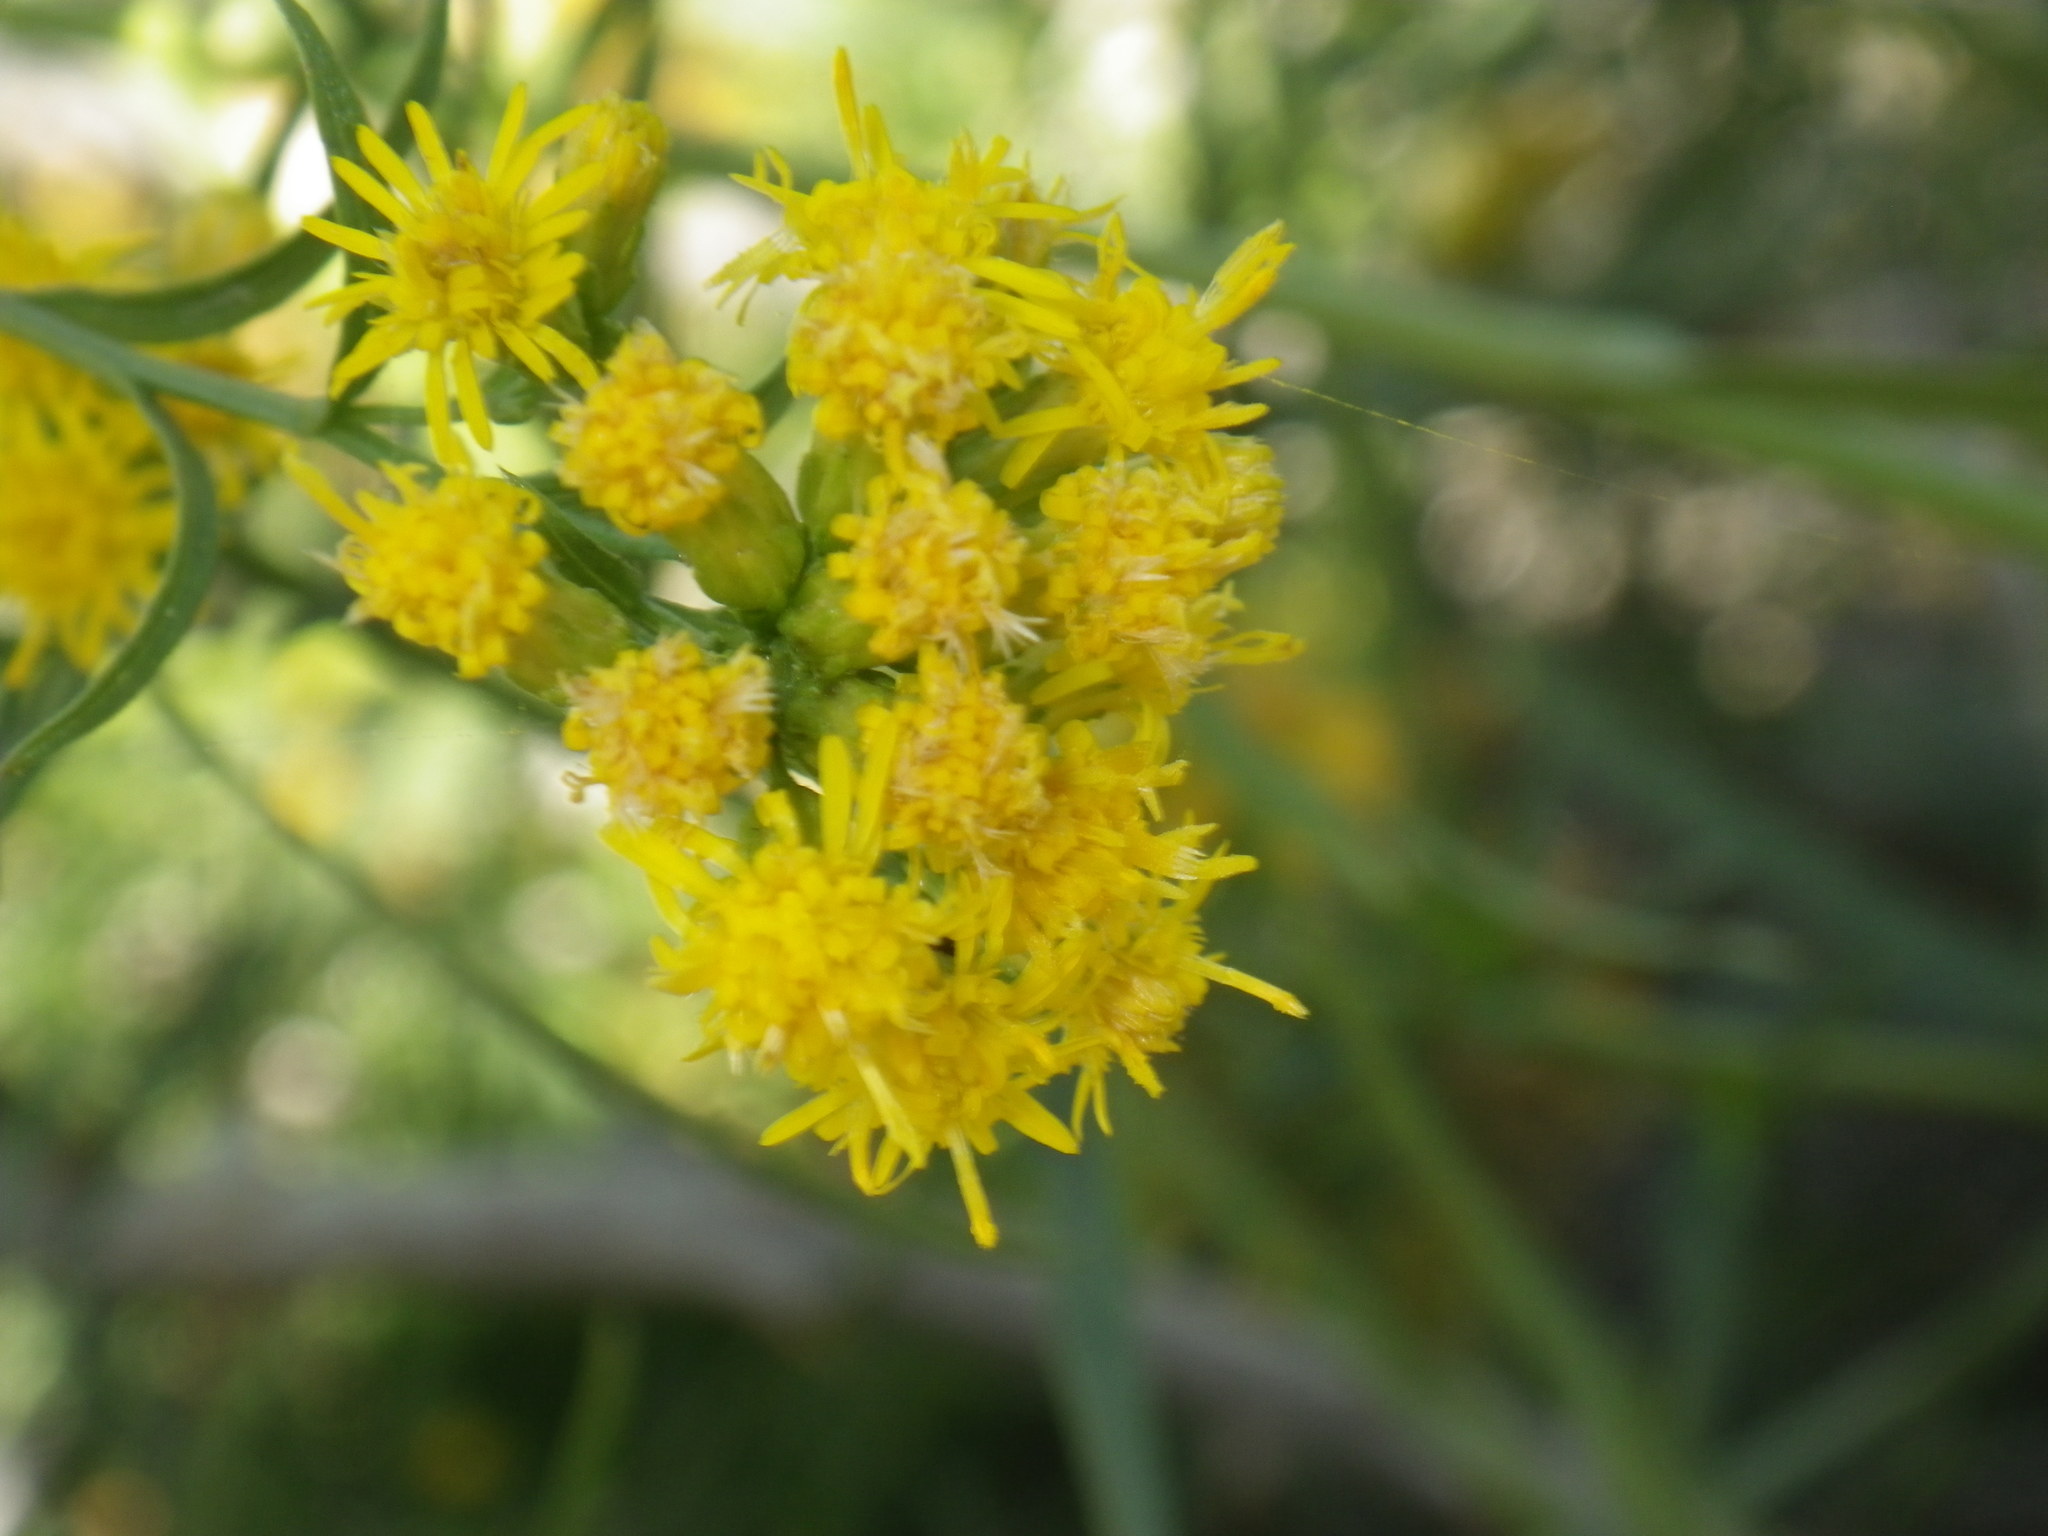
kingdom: Plantae
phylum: Tracheophyta
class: Magnoliopsida
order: Asterales
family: Asteraceae
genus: Euthamia
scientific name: Euthamia occidentalis
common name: Western goldentop
